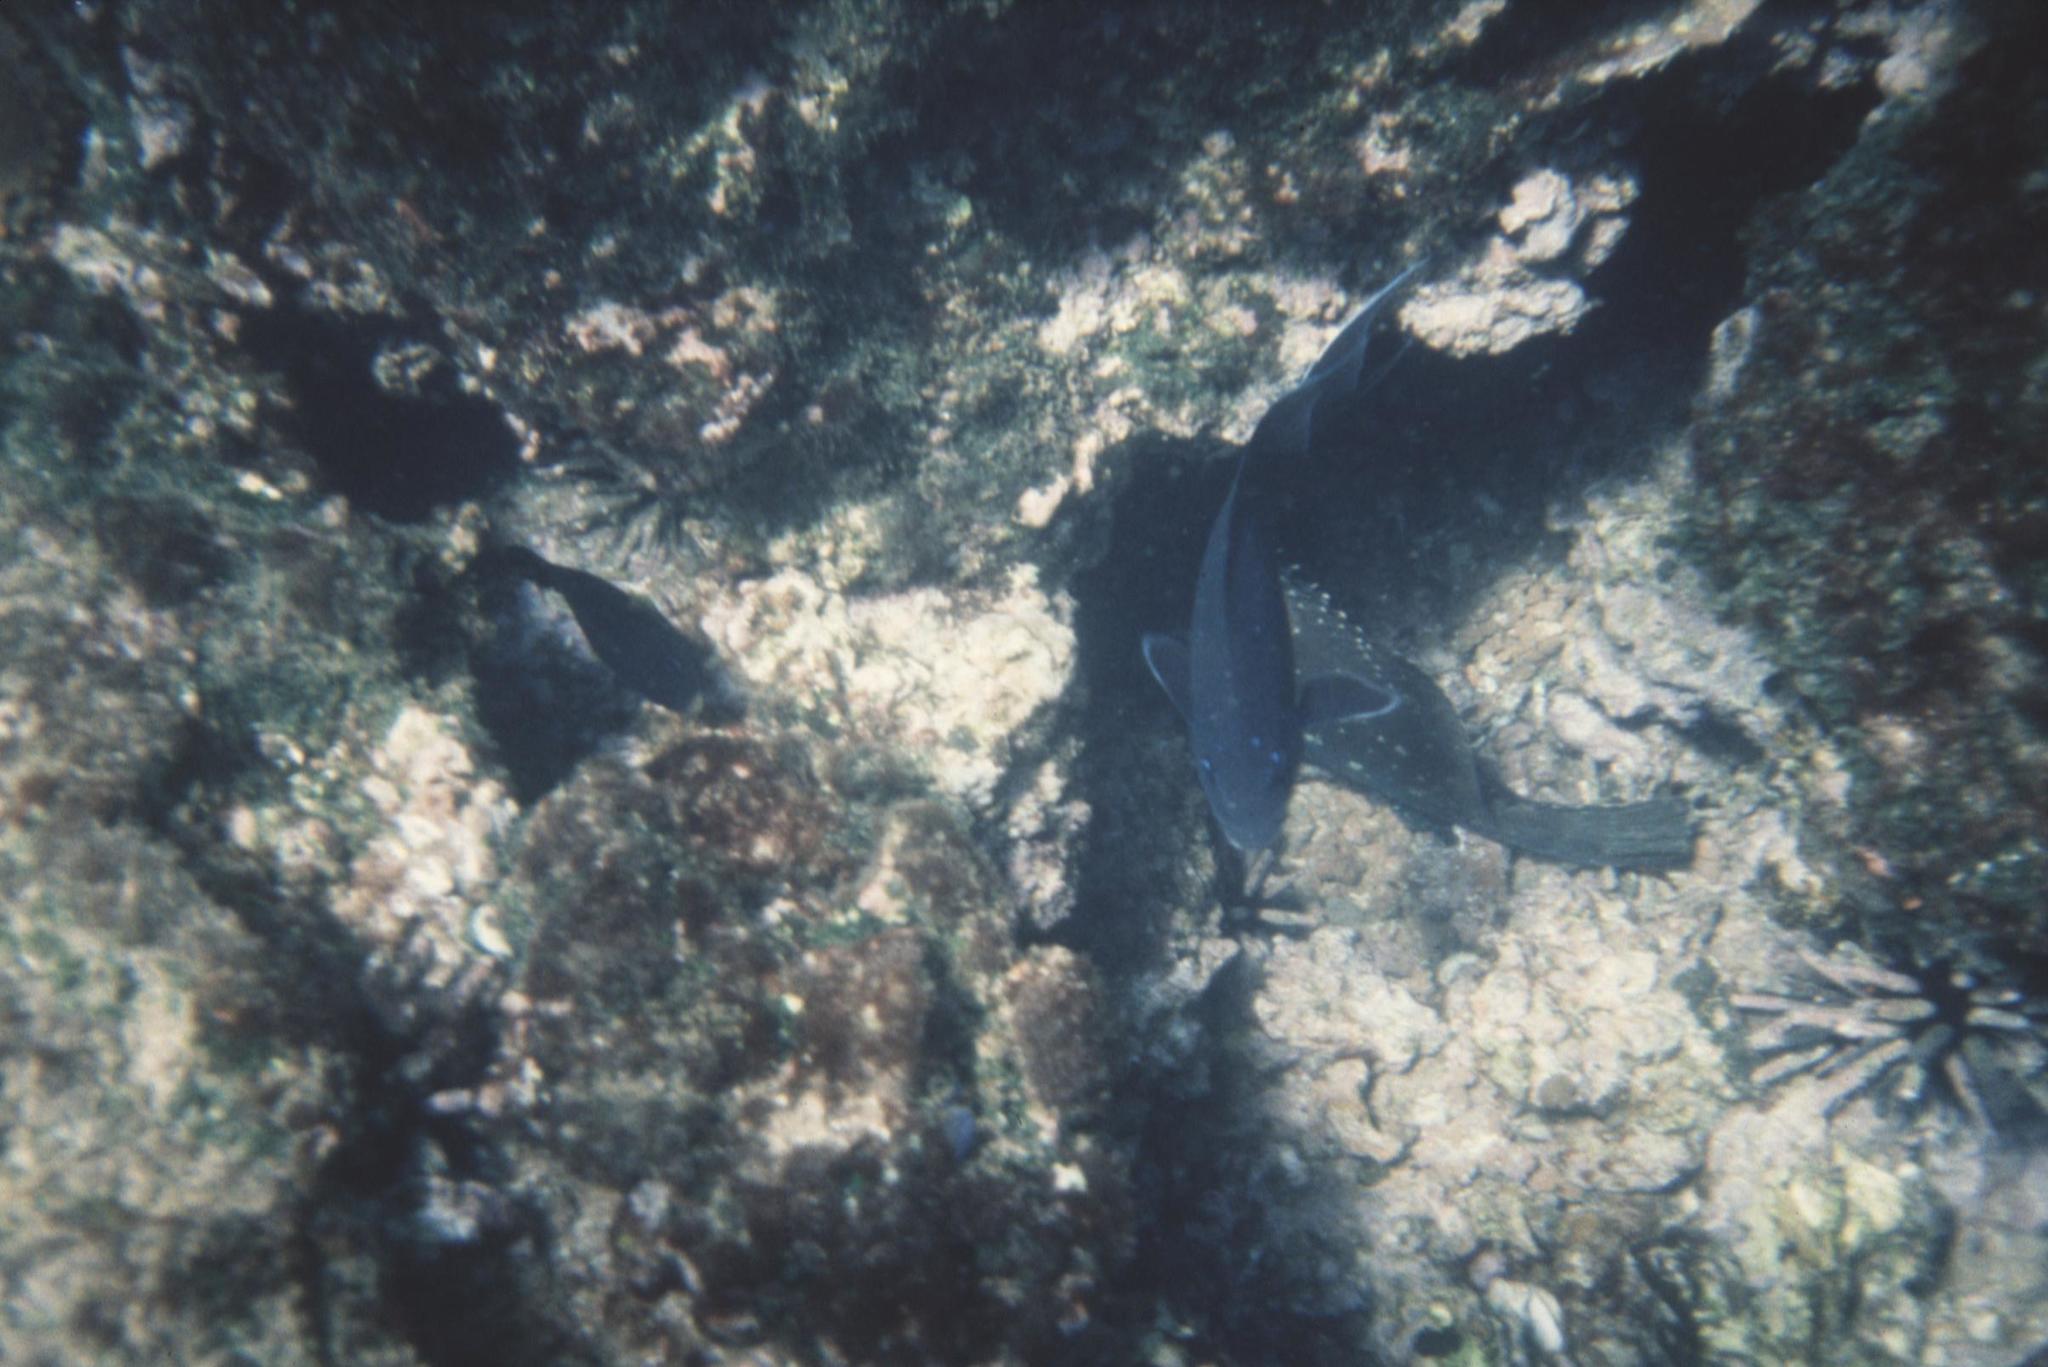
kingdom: Animalia
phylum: Chordata
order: Perciformes
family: Serranidae
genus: Epinephelus
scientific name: Epinephelus labriformis
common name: Flag cabrilla
